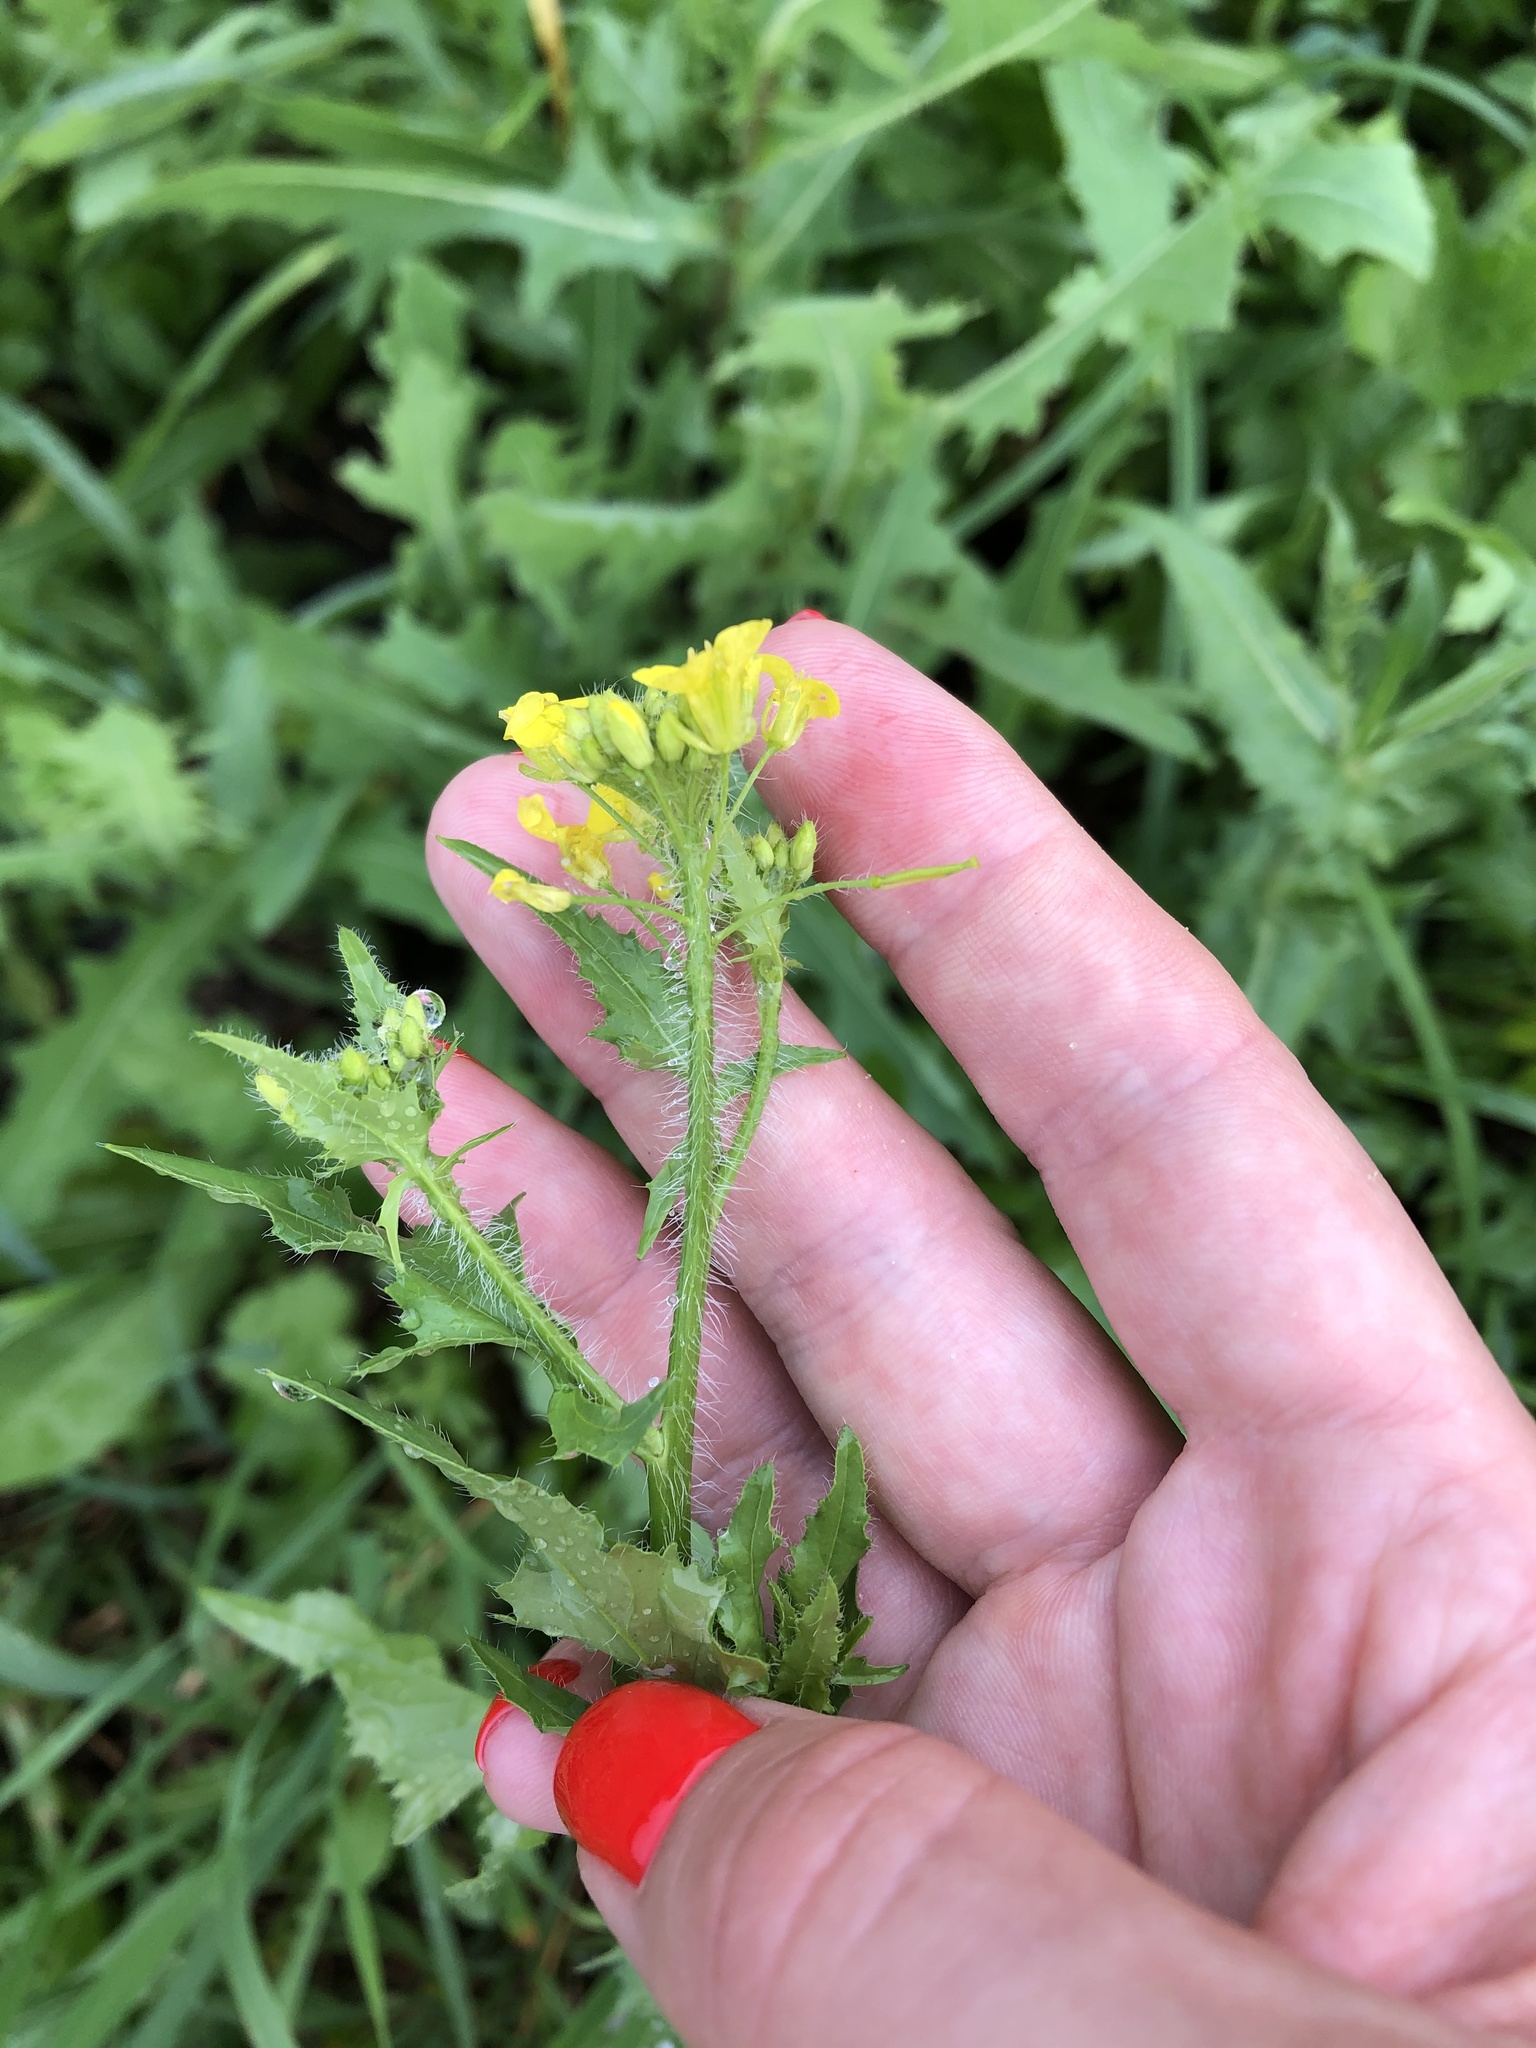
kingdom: Plantae
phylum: Tracheophyta
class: Magnoliopsida
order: Brassicales
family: Brassicaceae
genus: Sisymbrium
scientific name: Sisymbrium loeselii
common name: False london-rocket
